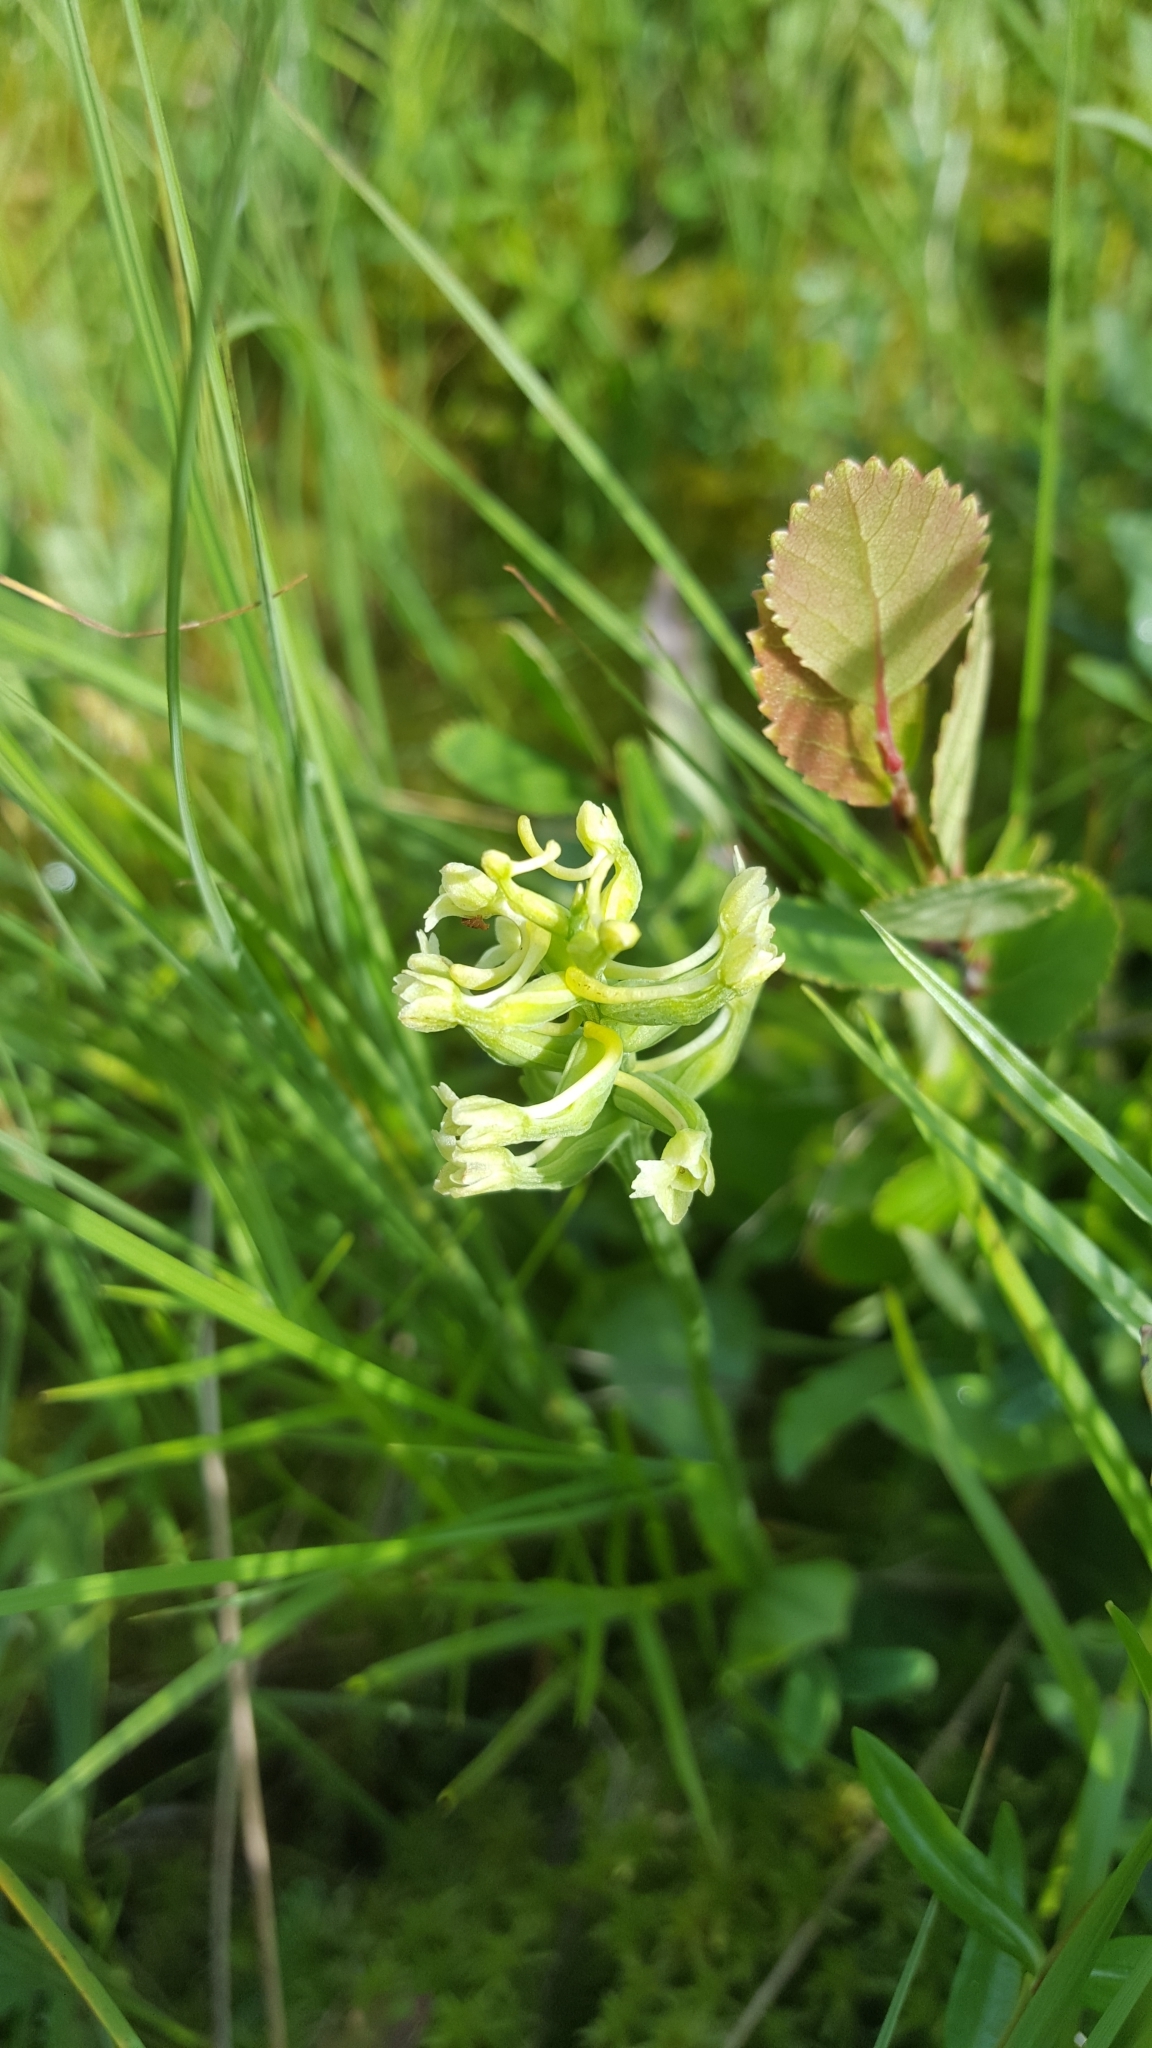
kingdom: Plantae
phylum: Tracheophyta
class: Liliopsida
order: Asparagales
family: Orchidaceae
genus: Platanthera
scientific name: Platanthera clavellata
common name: Club-spur orchid
